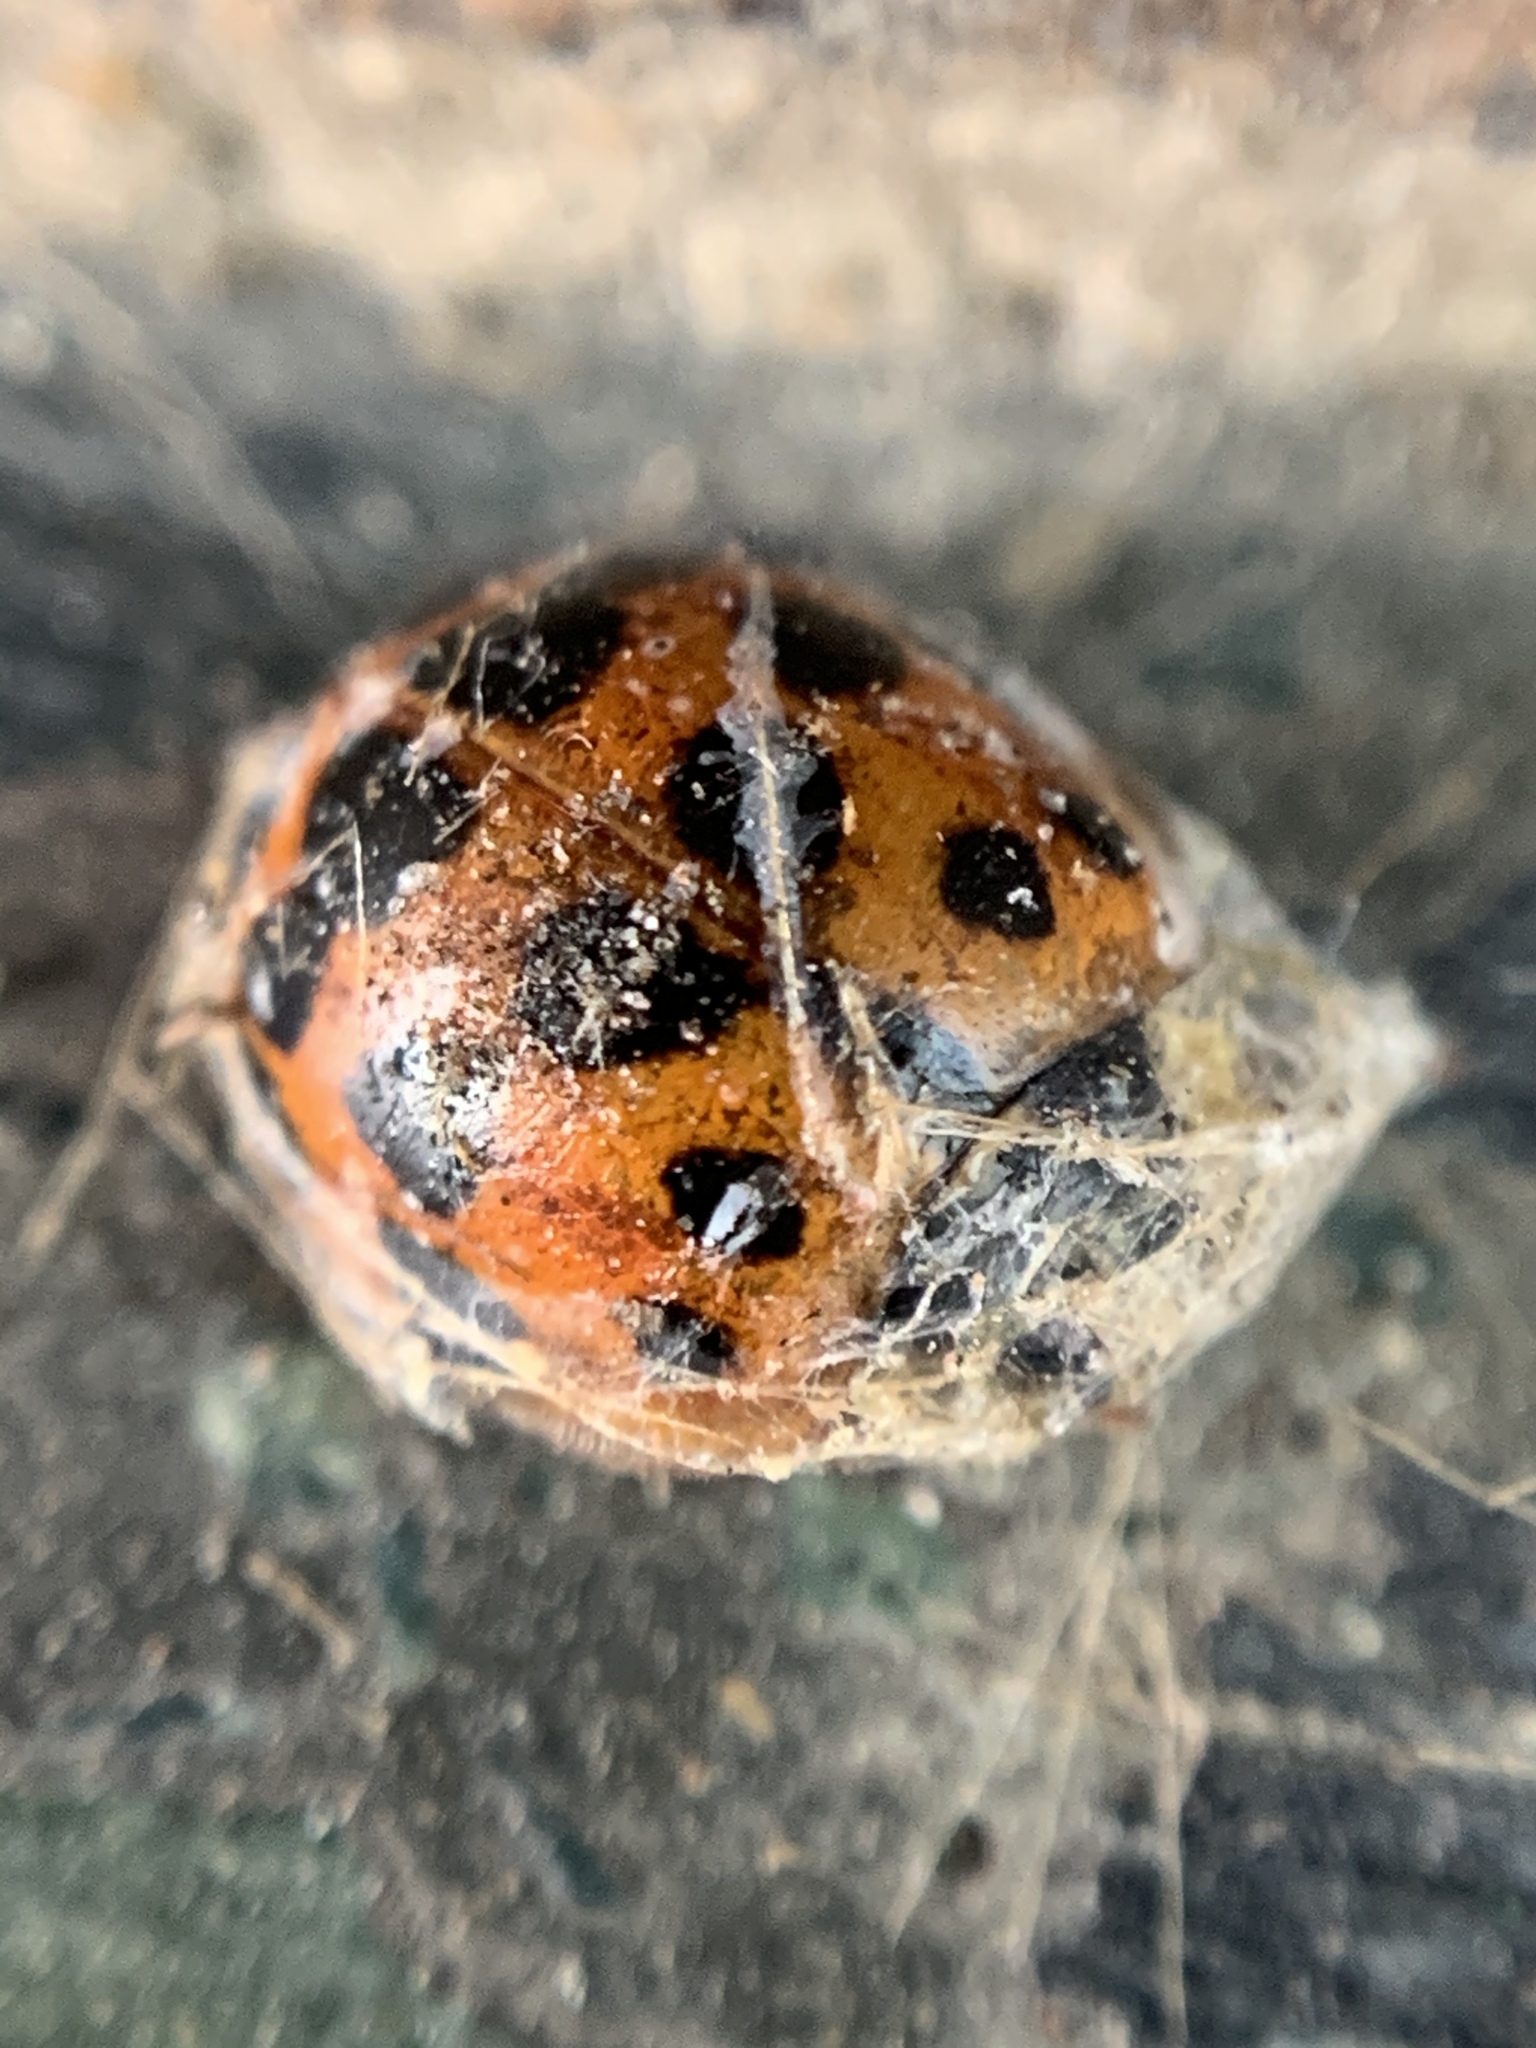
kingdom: Animalia
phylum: Arthropoda
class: Insecta
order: Coleoptera
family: Coccinellidae
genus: Harmonia
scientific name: Harmonia axyridis
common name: Harlequin ladybird
